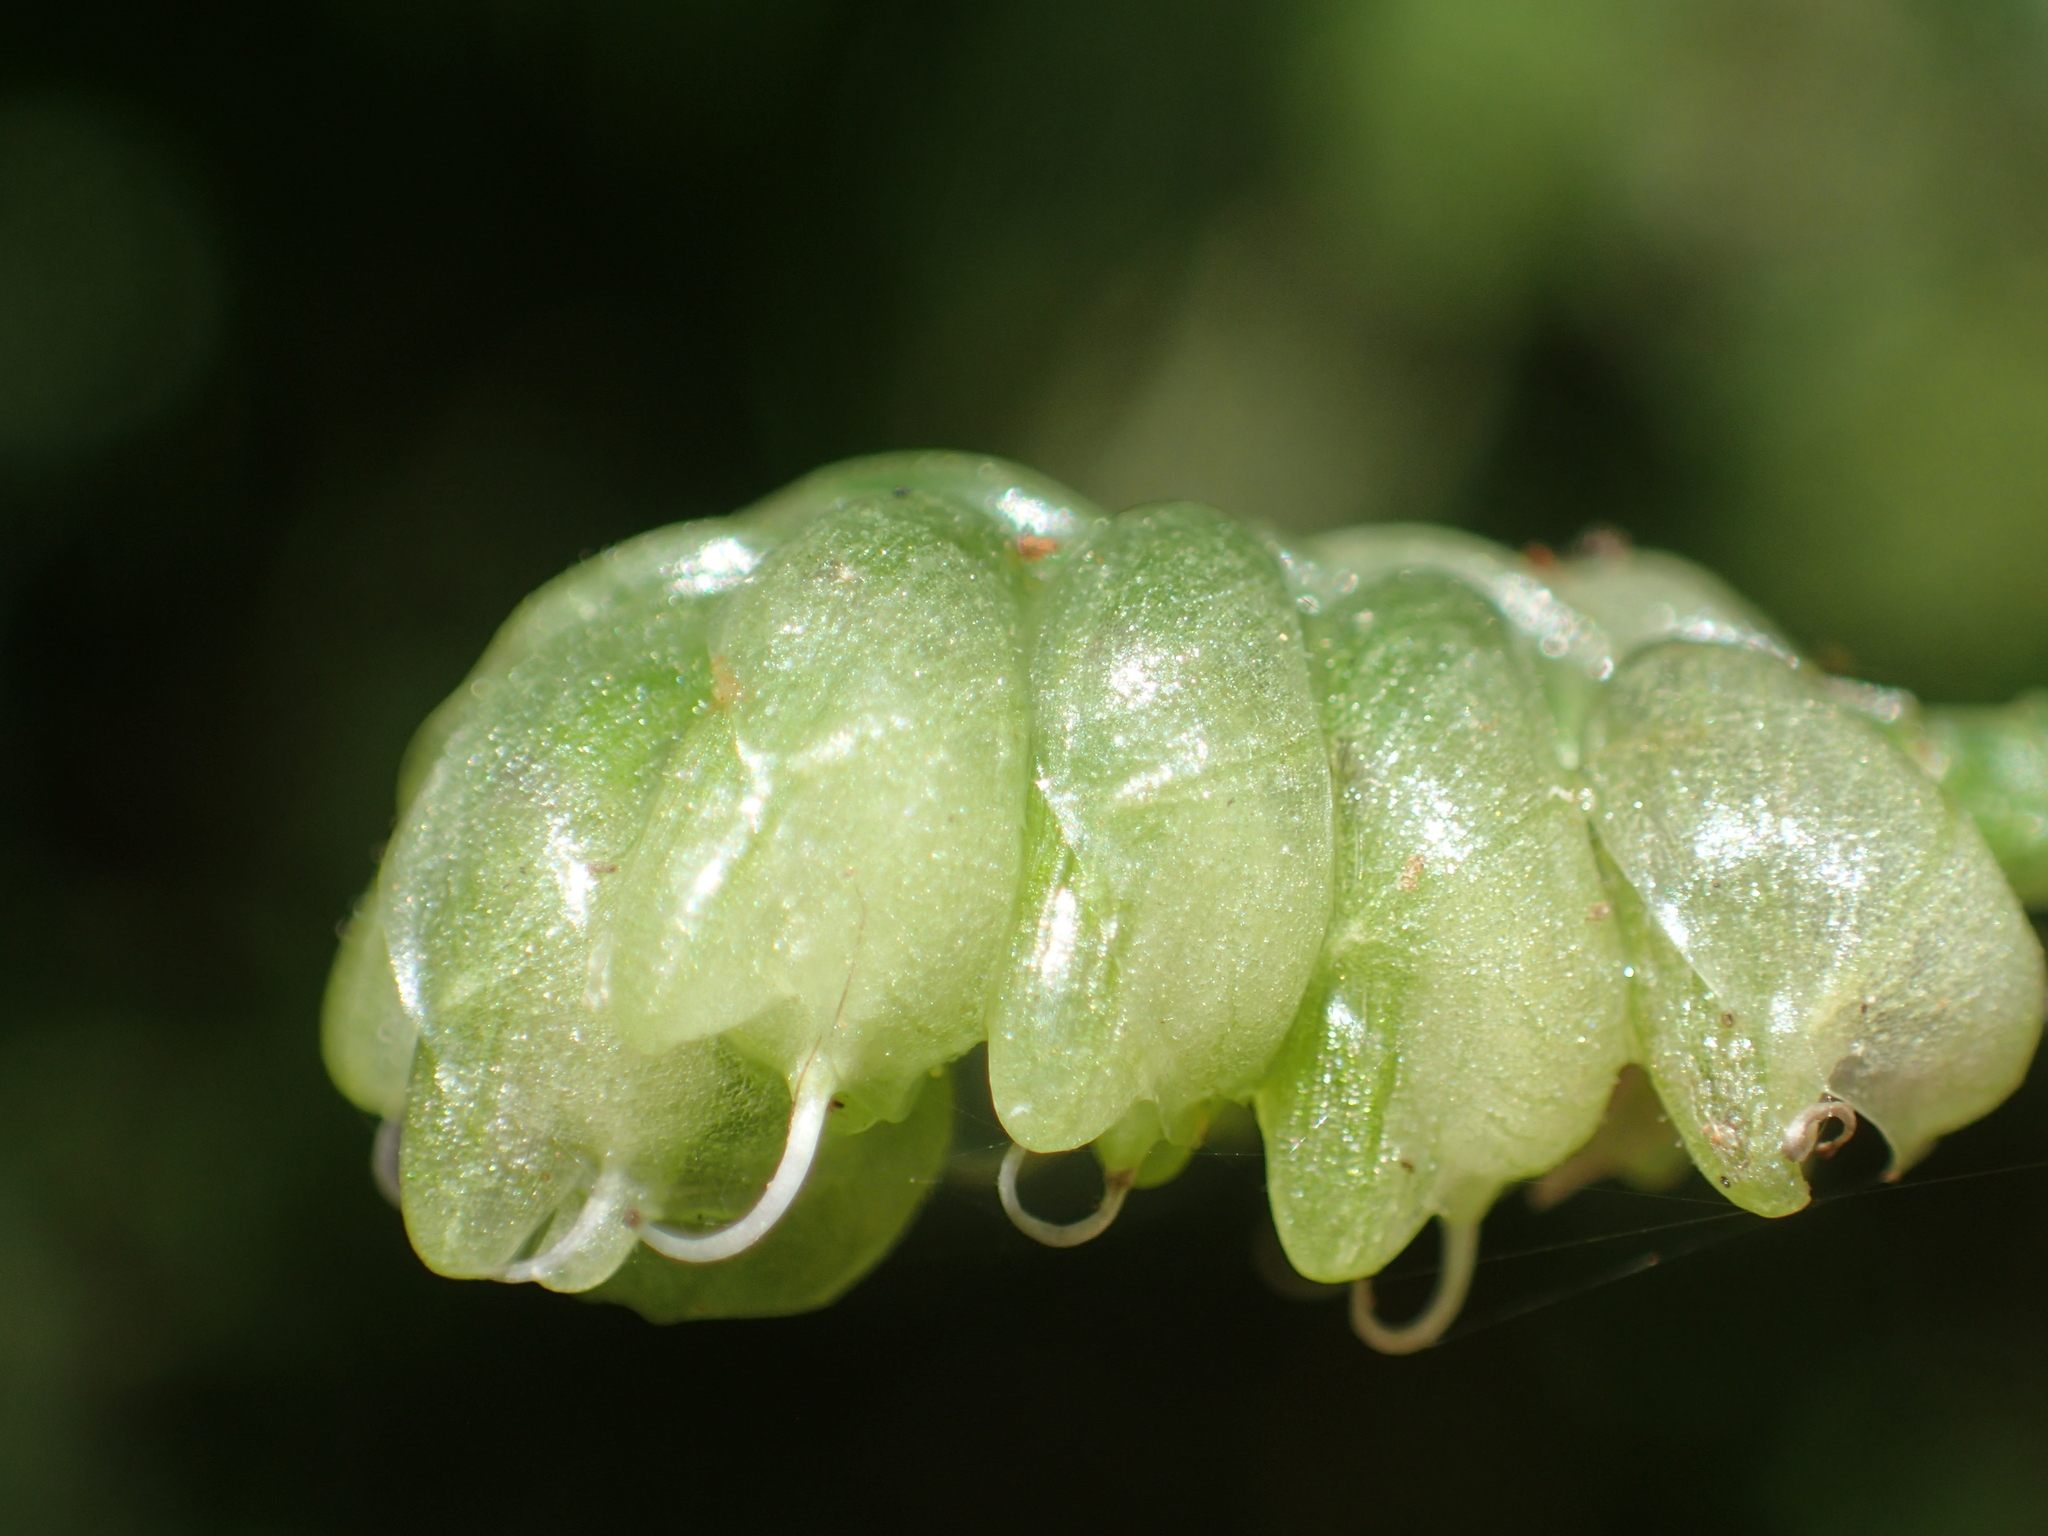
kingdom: Plantae
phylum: Tracheophyta
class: Liliopsida
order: Commelinales
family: Commelinaceae
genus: Murdannia
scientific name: Murdannia bracteata
